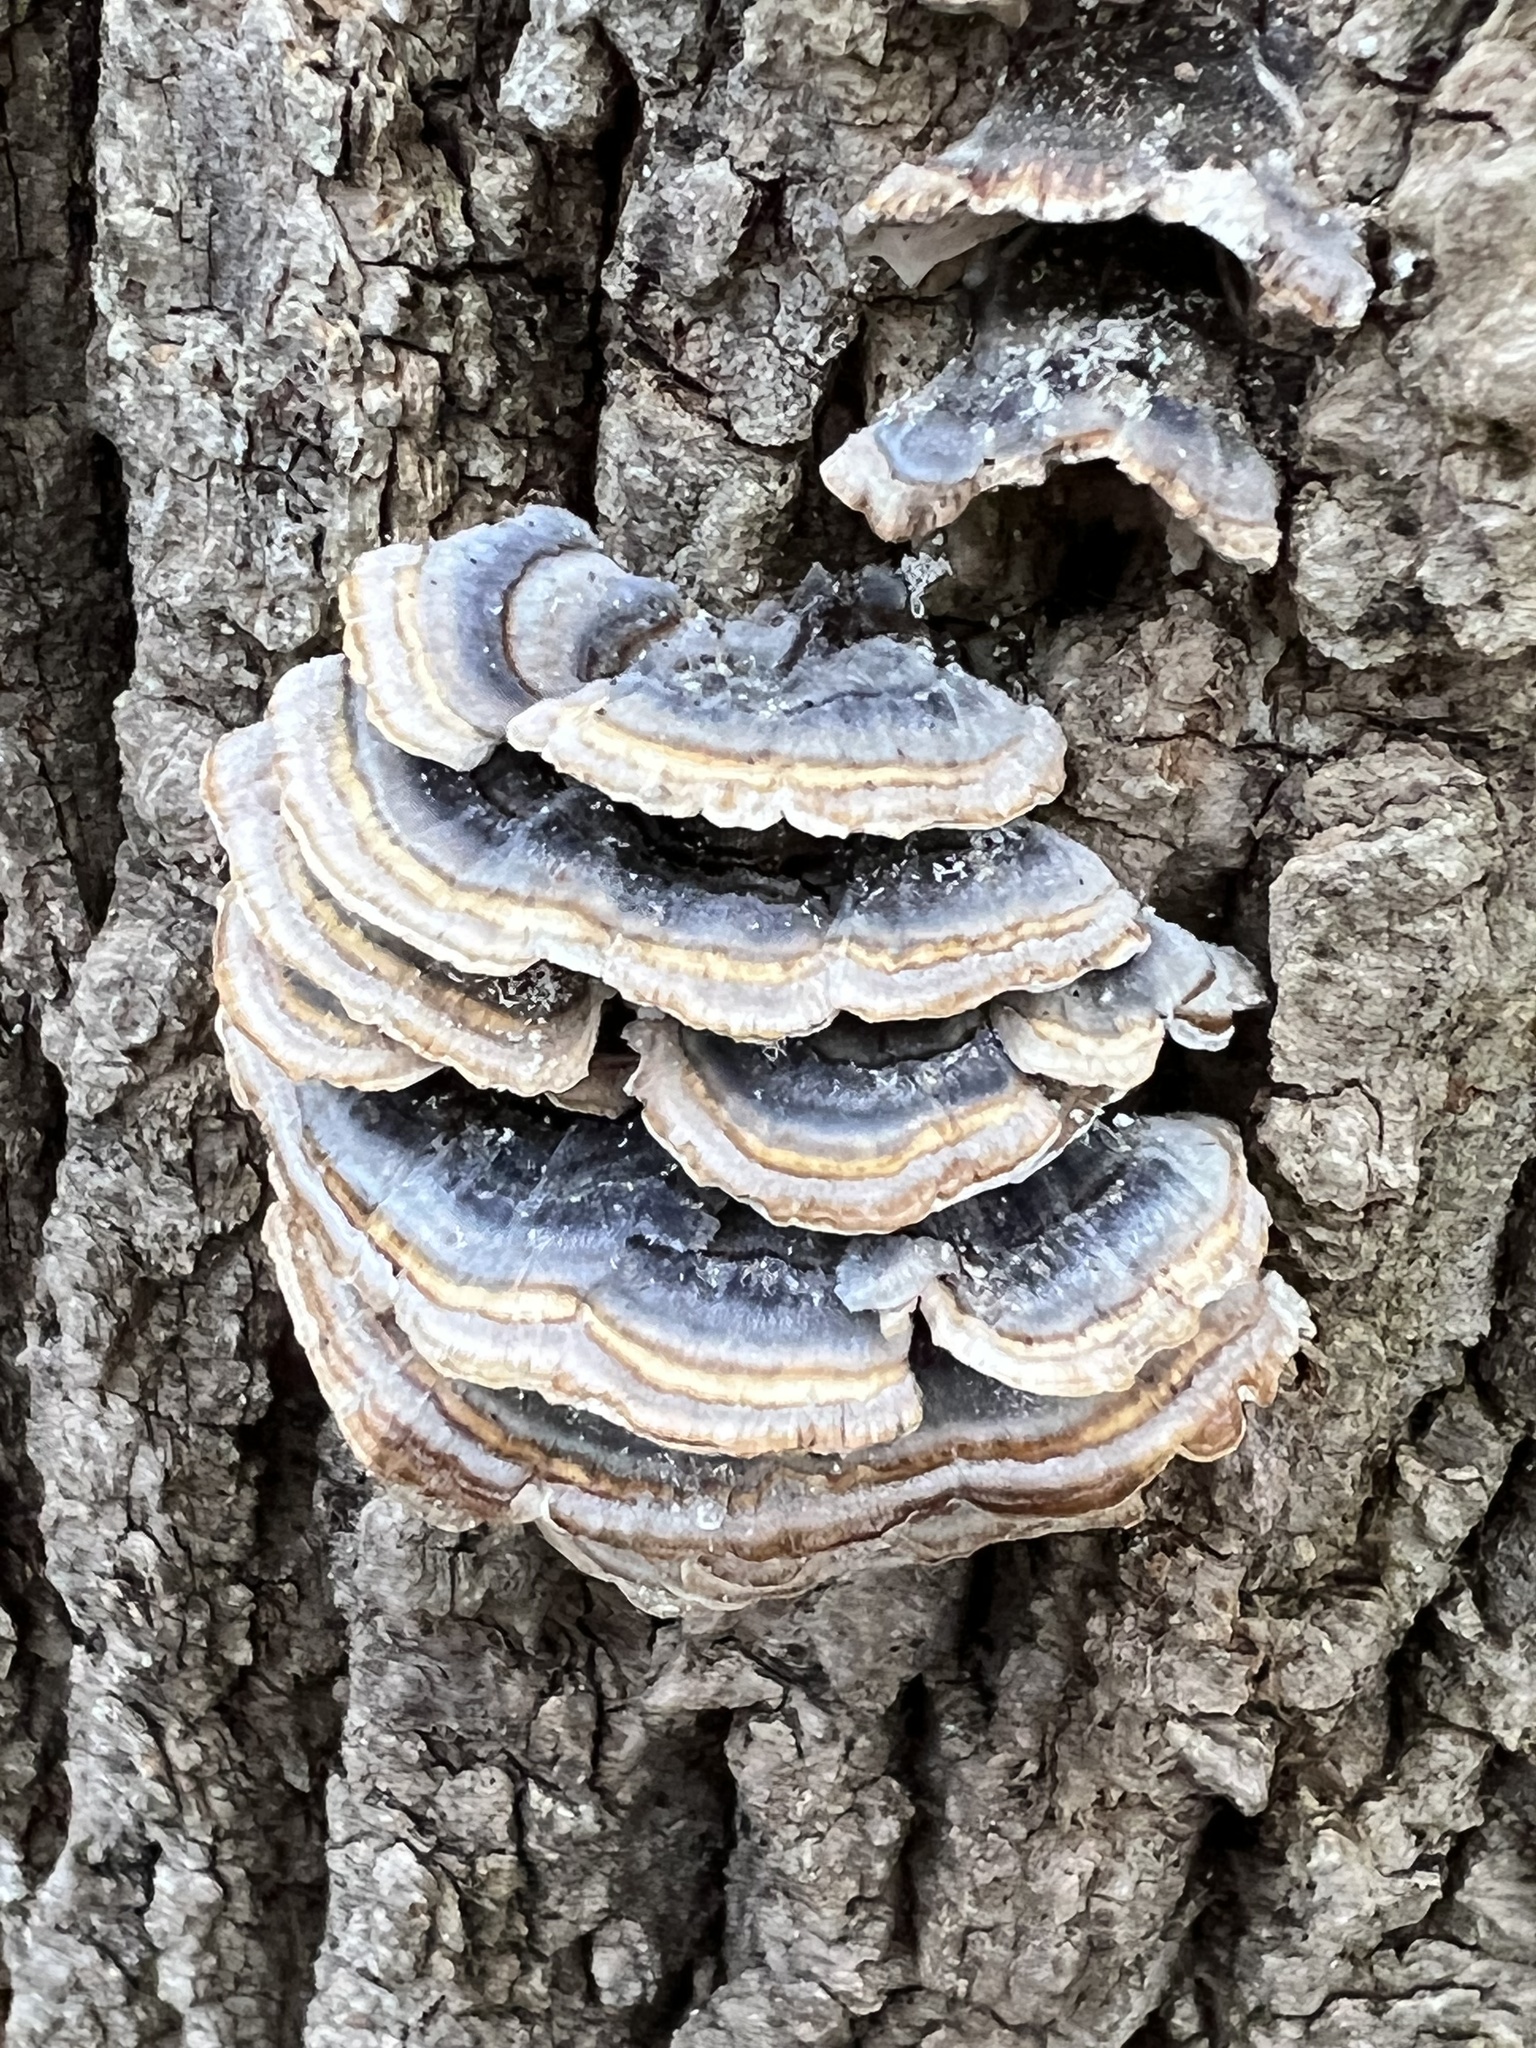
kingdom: Fungi
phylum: Basidiomycota
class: Agaricomycetes
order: Polyporales
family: Polyporaceae
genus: Trametes
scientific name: Trametes versicolor
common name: Turkeytail
